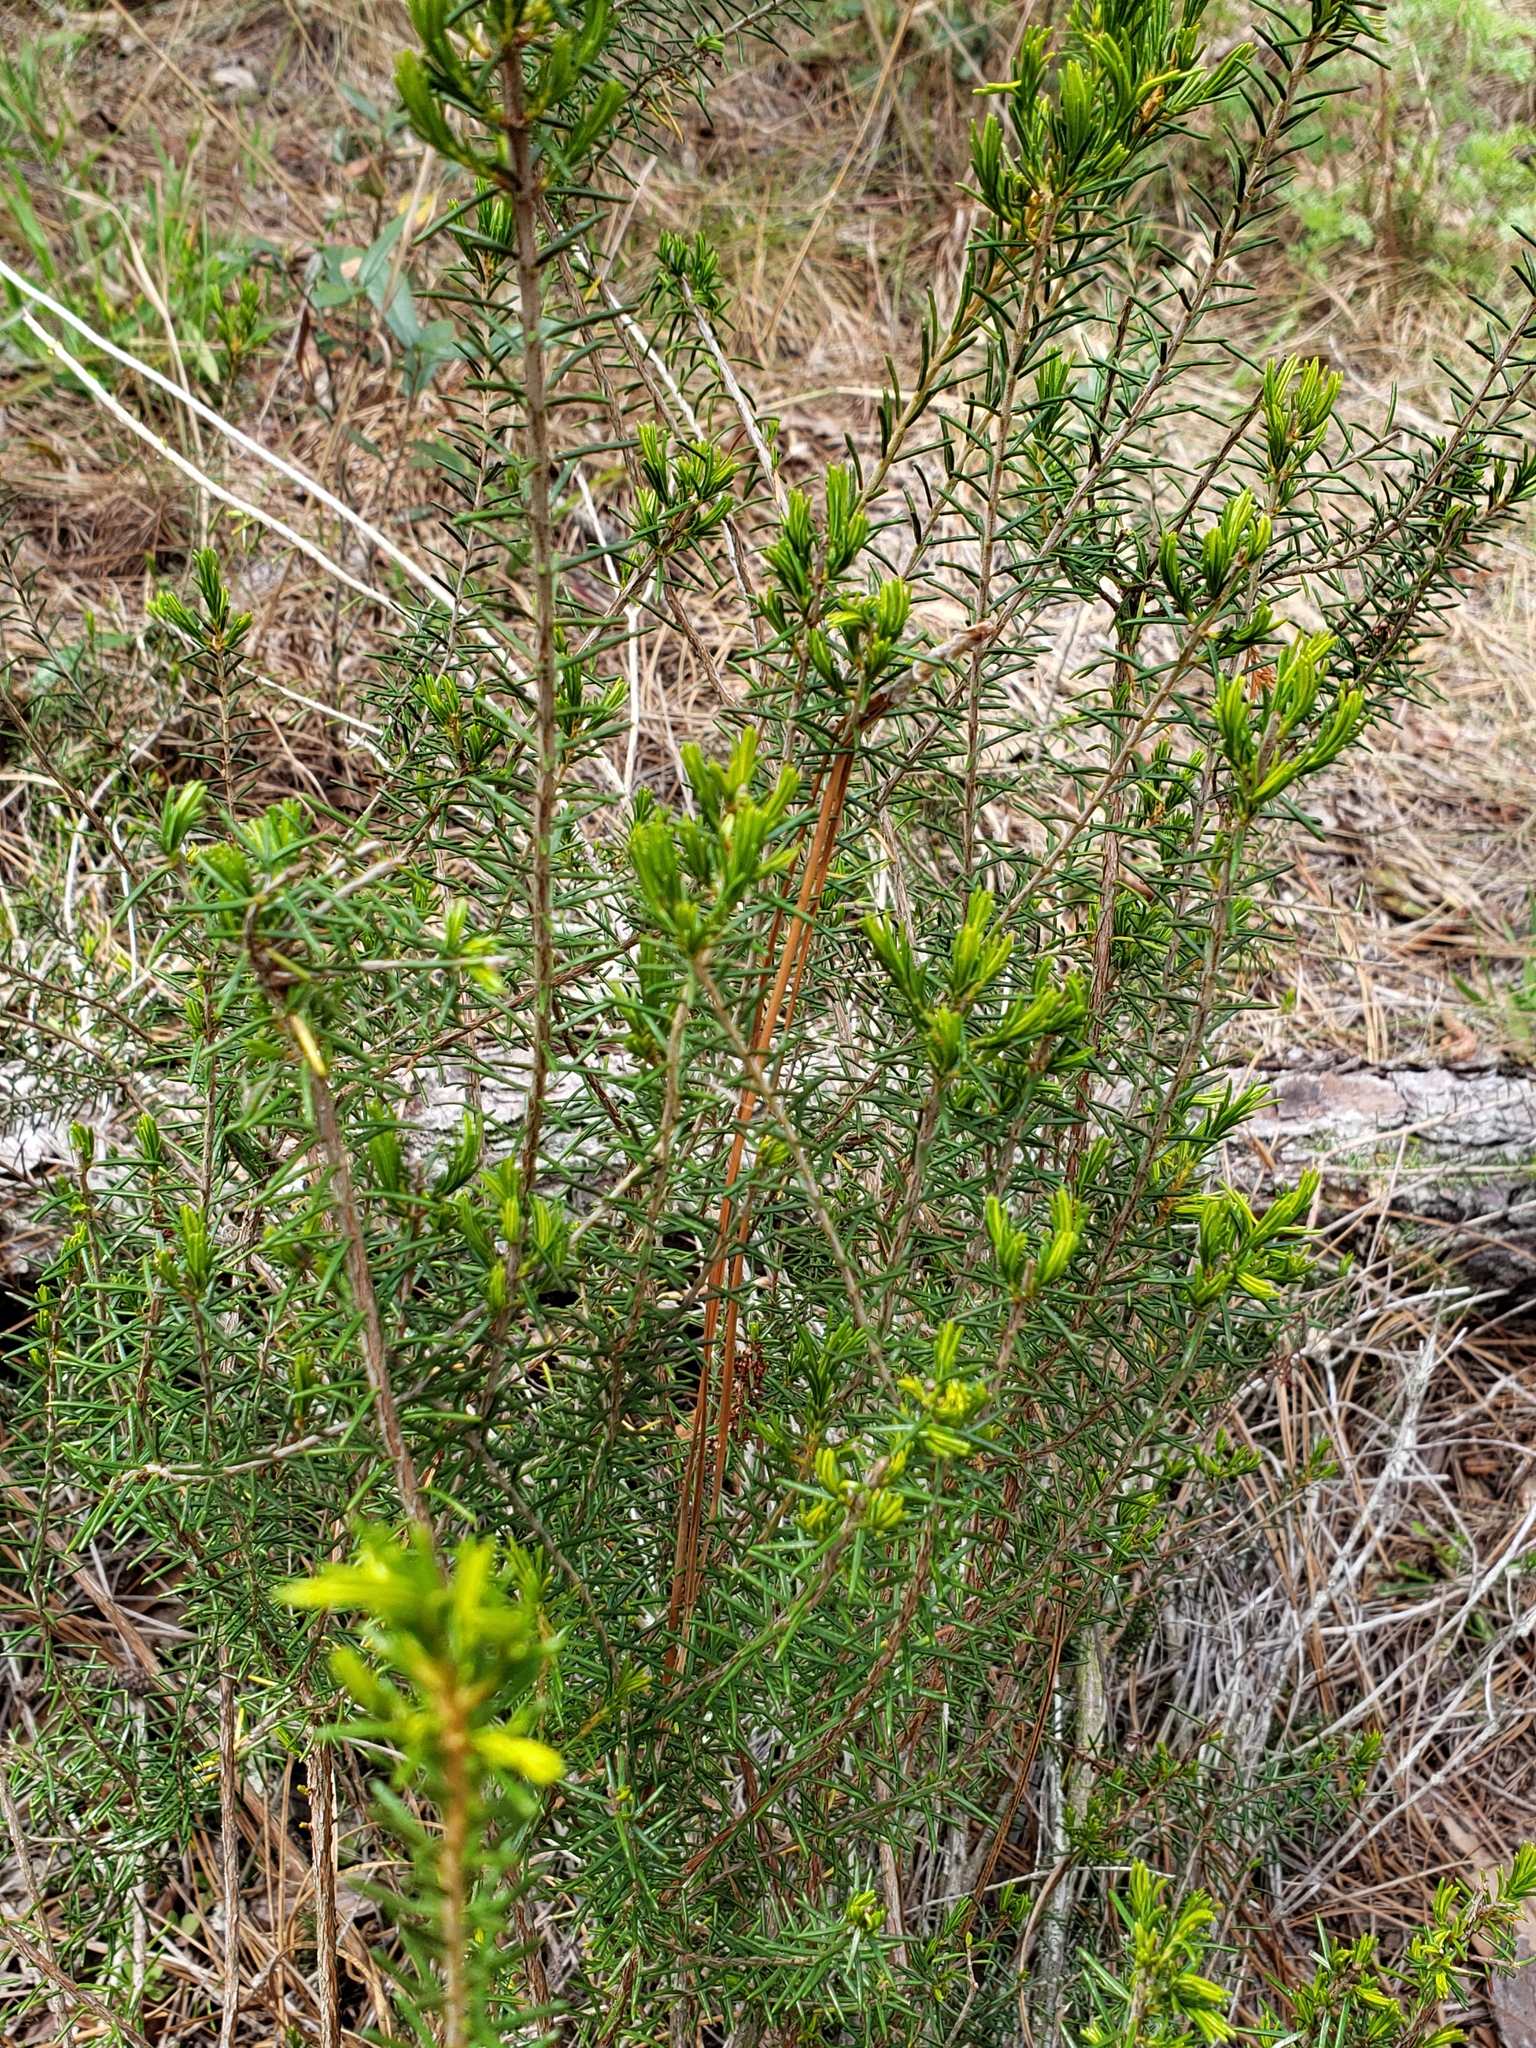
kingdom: Plantae
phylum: Tracheophyta
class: Magnoliopsida
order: Ericales
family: Ericaceae
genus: Ceratiola
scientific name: Ceratiola ericoides
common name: Sandhill-rosemary
